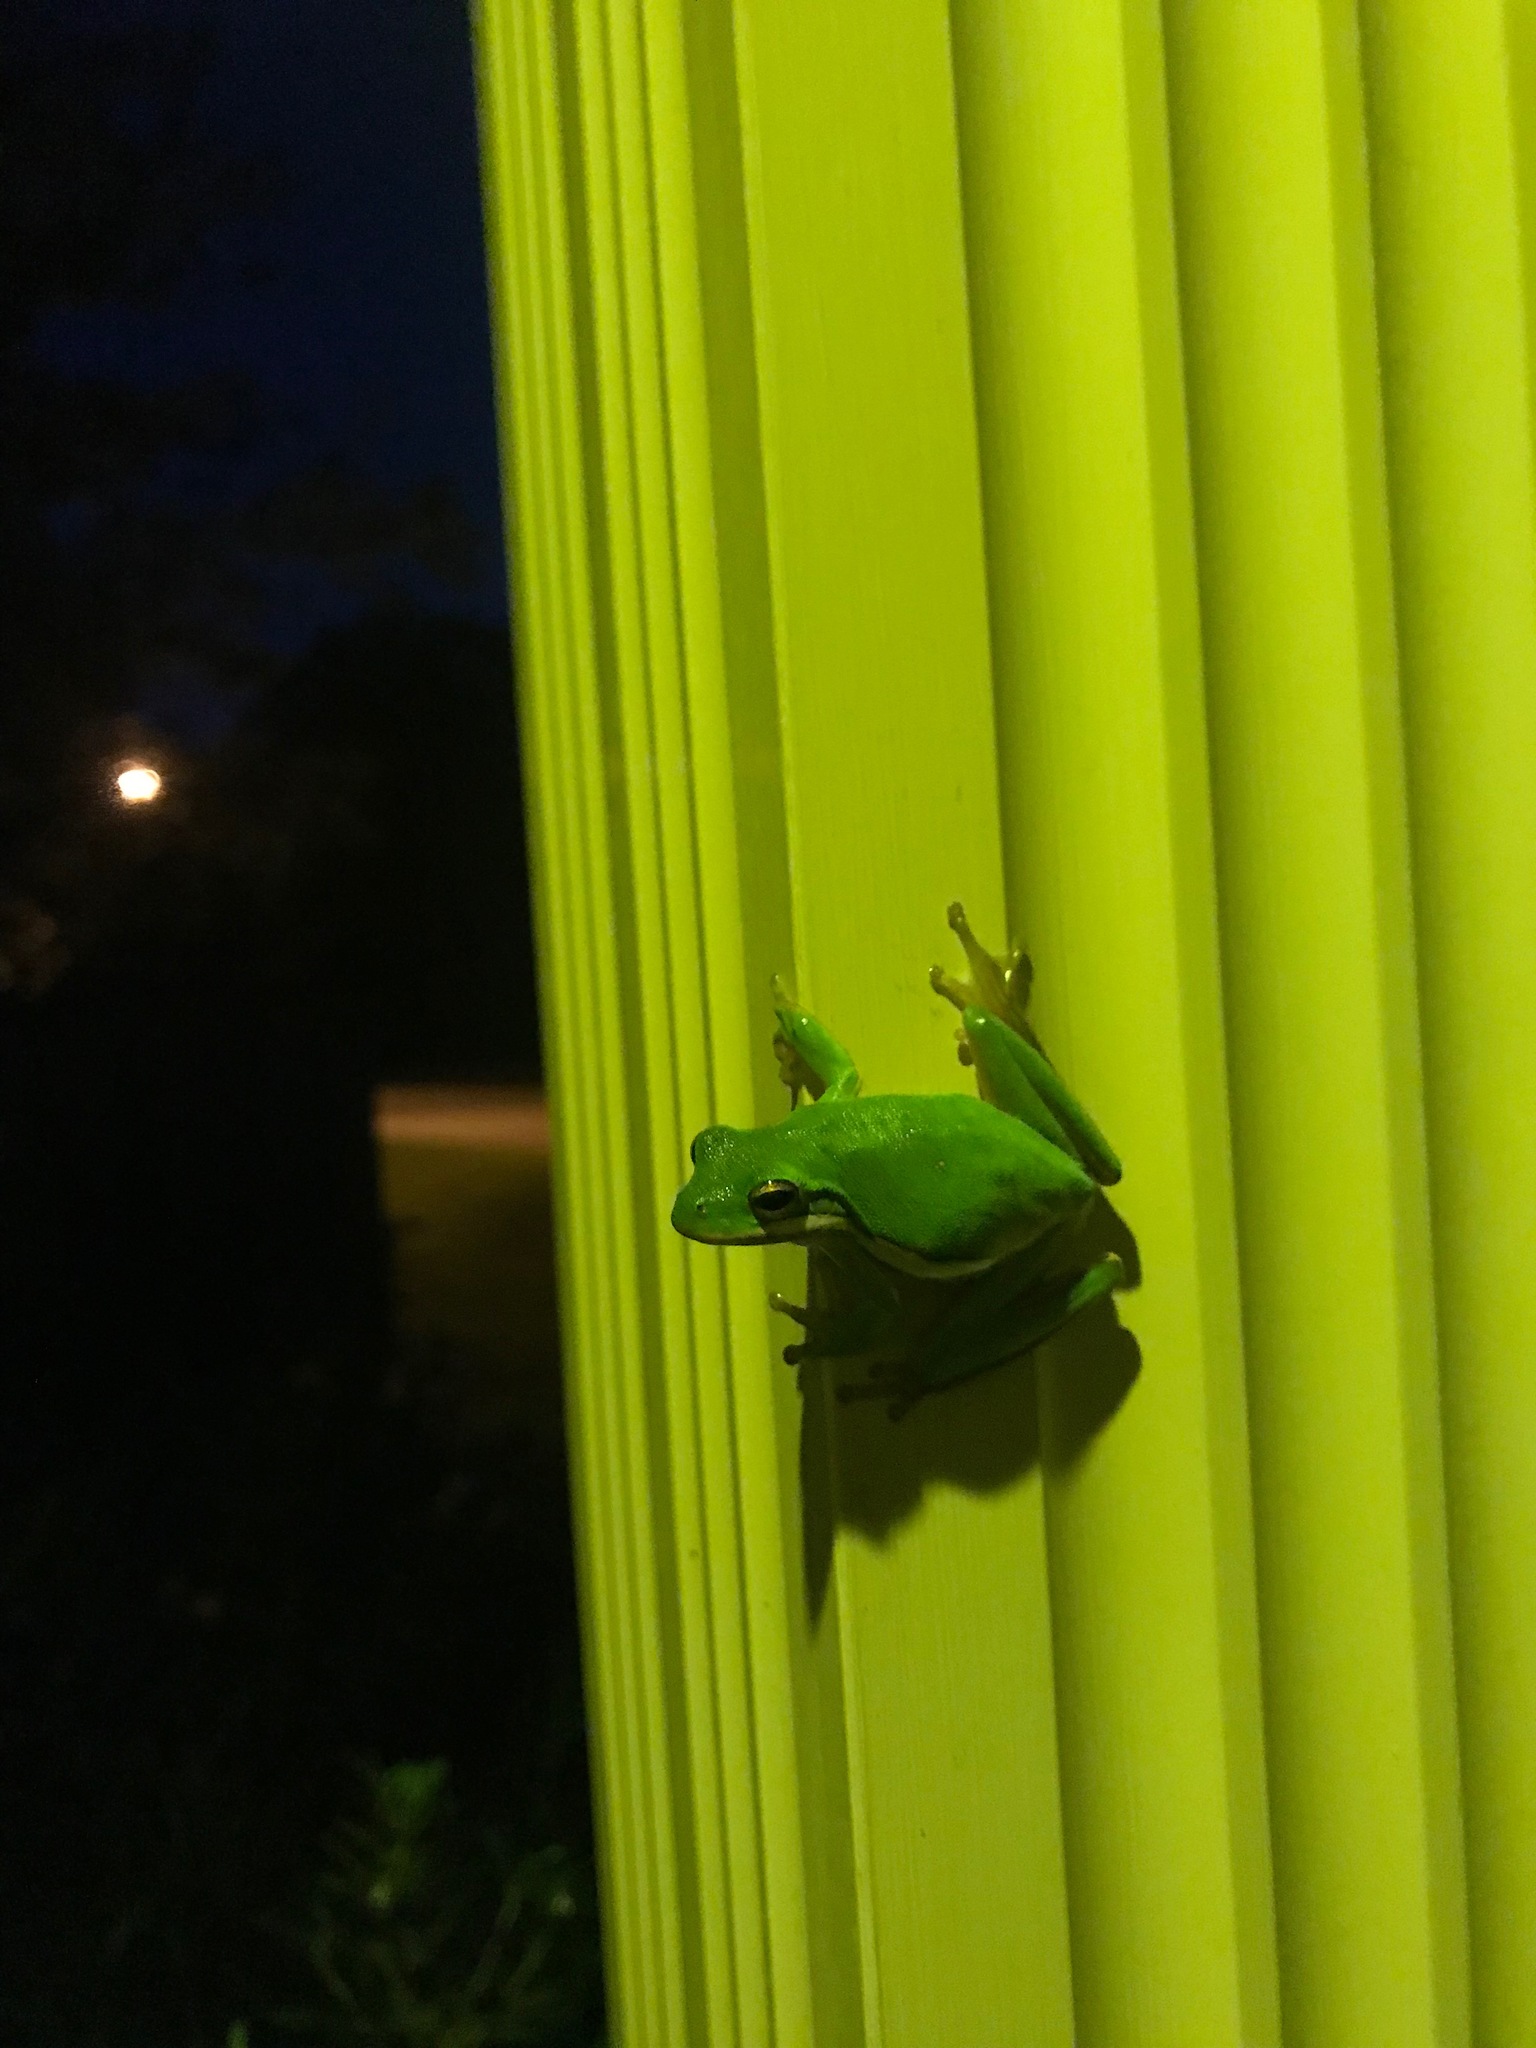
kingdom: Animalia
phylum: Chordata
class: Amphibia
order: Anura
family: Hylidae
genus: Dryophytes
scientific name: Dryophytes cinereus
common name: Green treefrog
